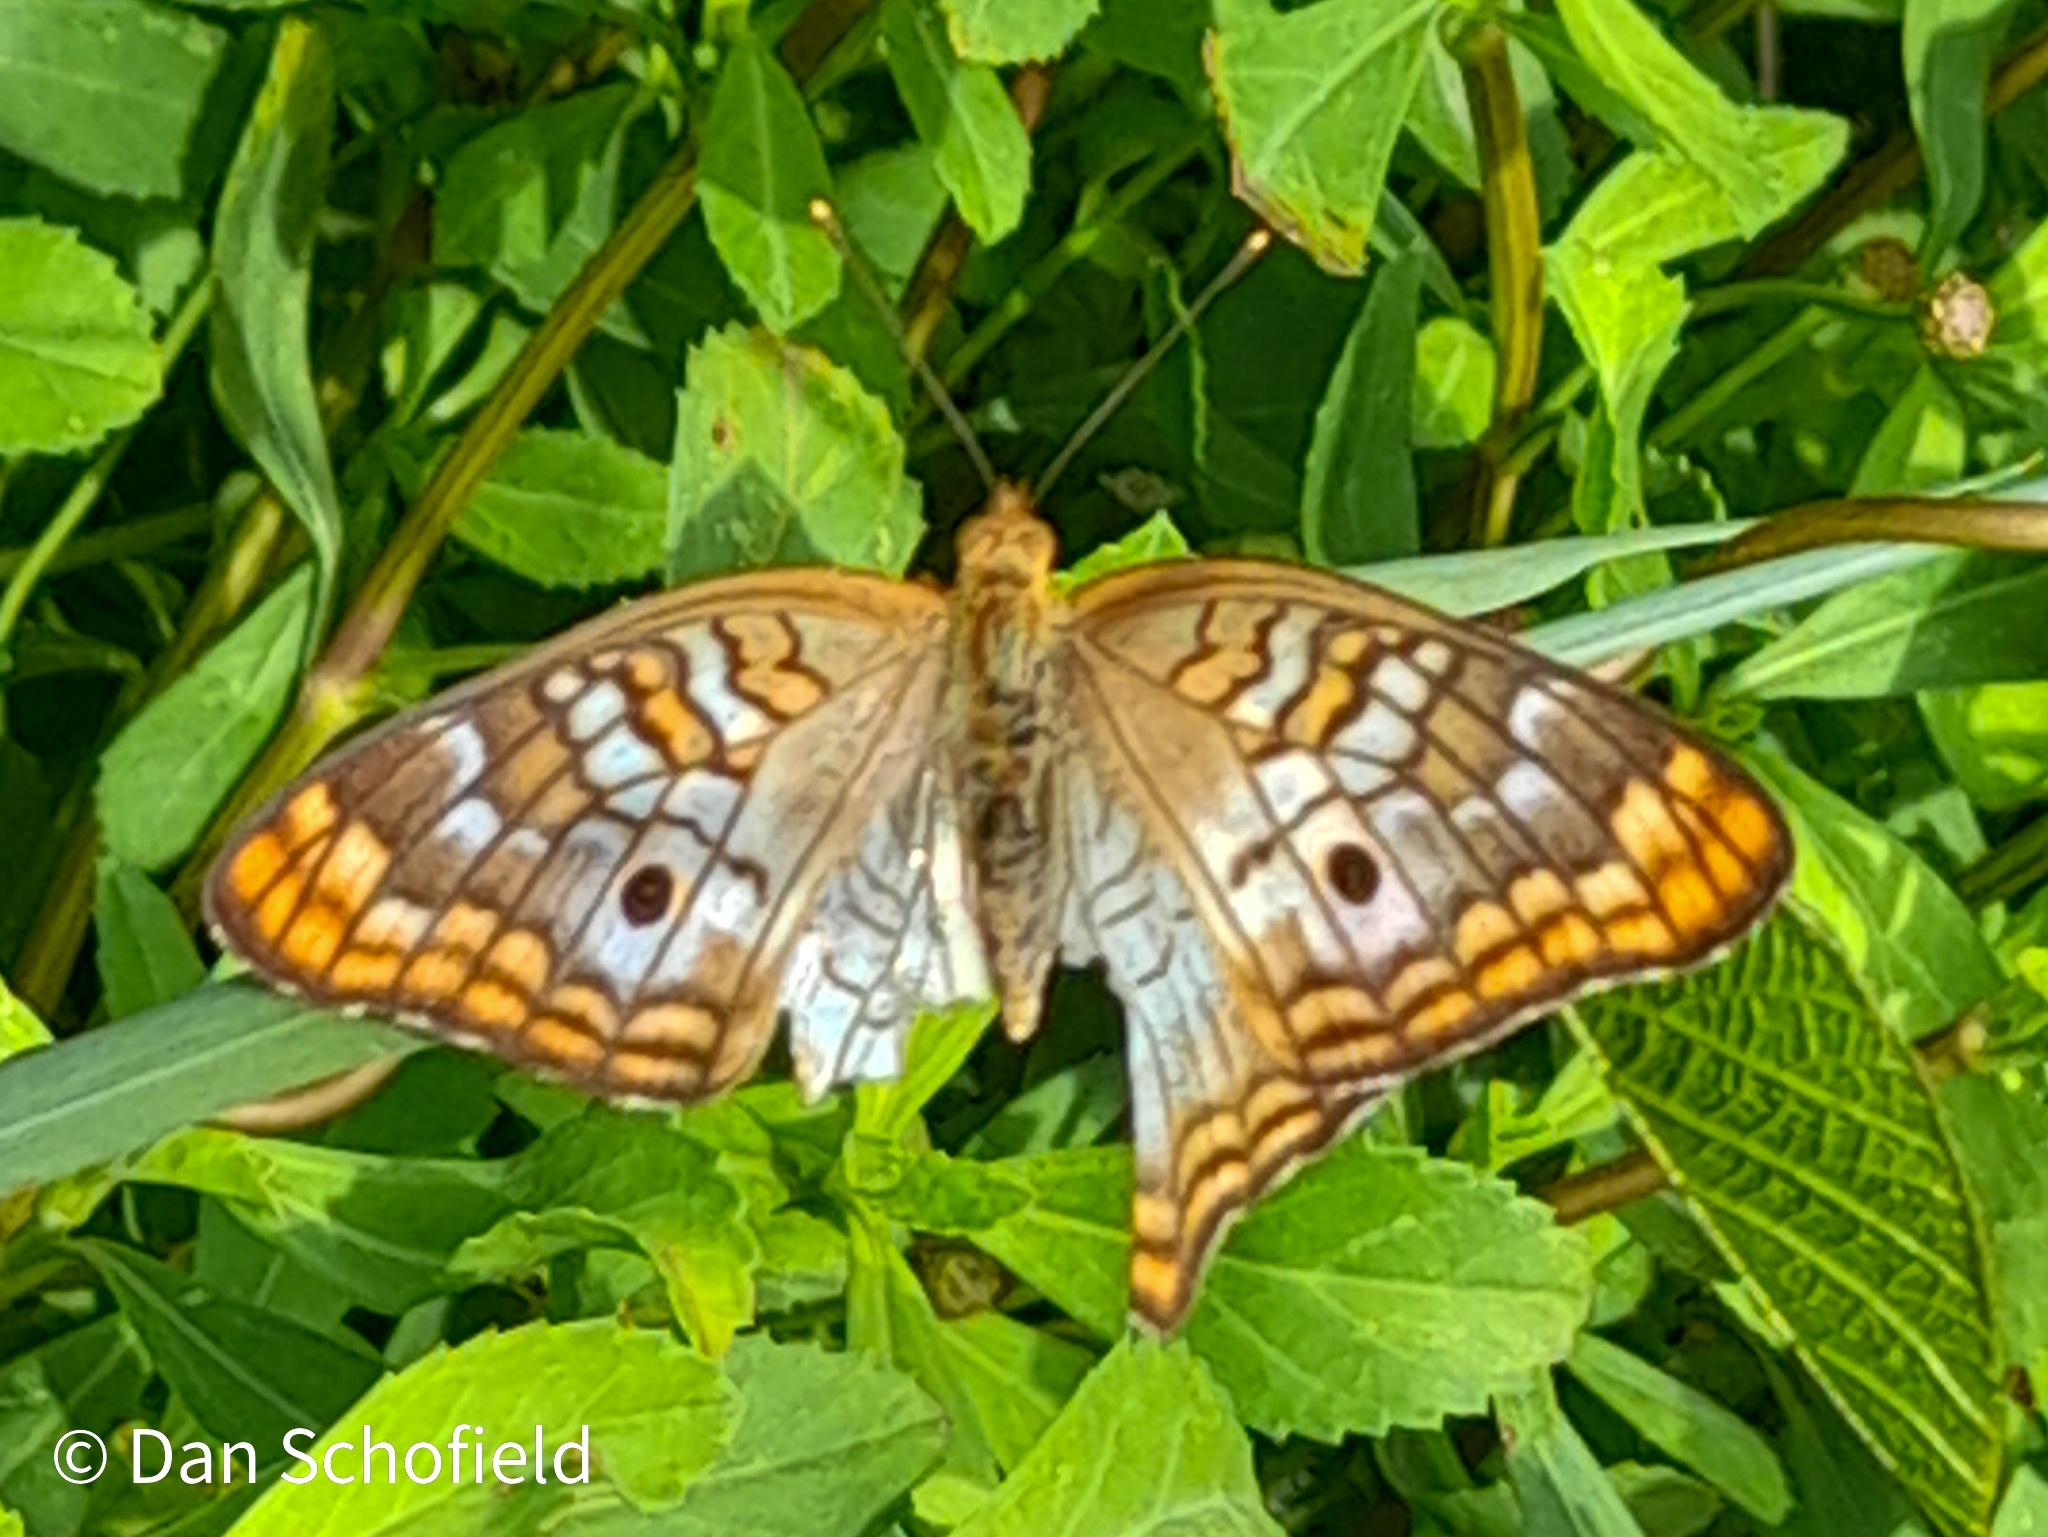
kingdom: Animalia
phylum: Arthropoda
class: Insecta
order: Lepidoptera
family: Nymphalidae
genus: Anartia
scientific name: Anartia jatrophae
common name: White peacock
